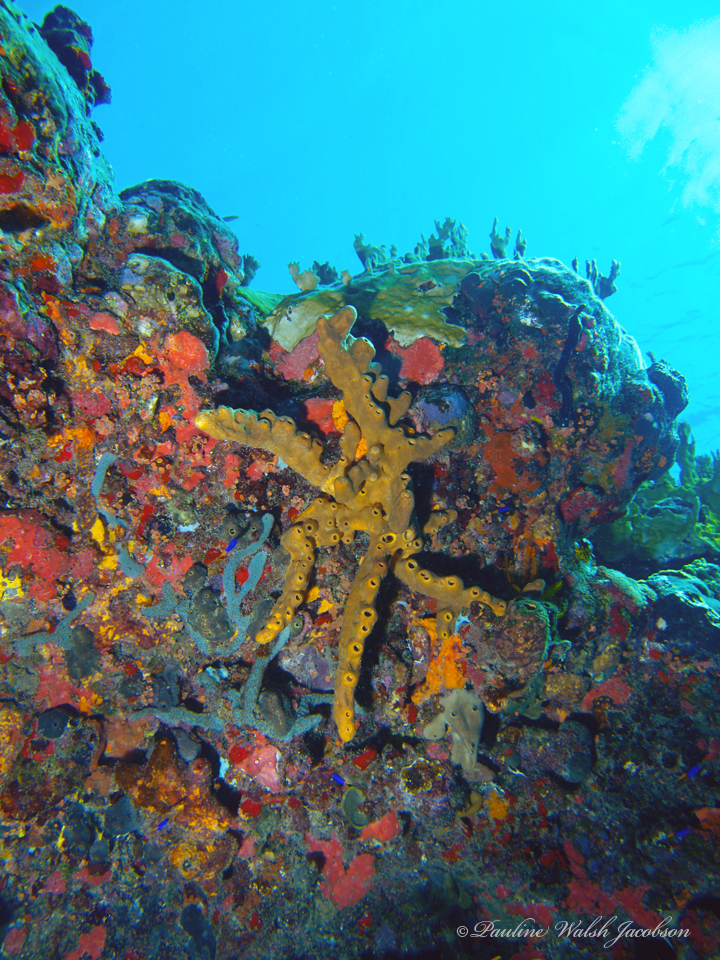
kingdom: Animalia
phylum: Porifera
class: Demospongiae
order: Agelasida
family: Agelasidae
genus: Agelas
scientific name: Agelas conifera
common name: Brown tube sponge
